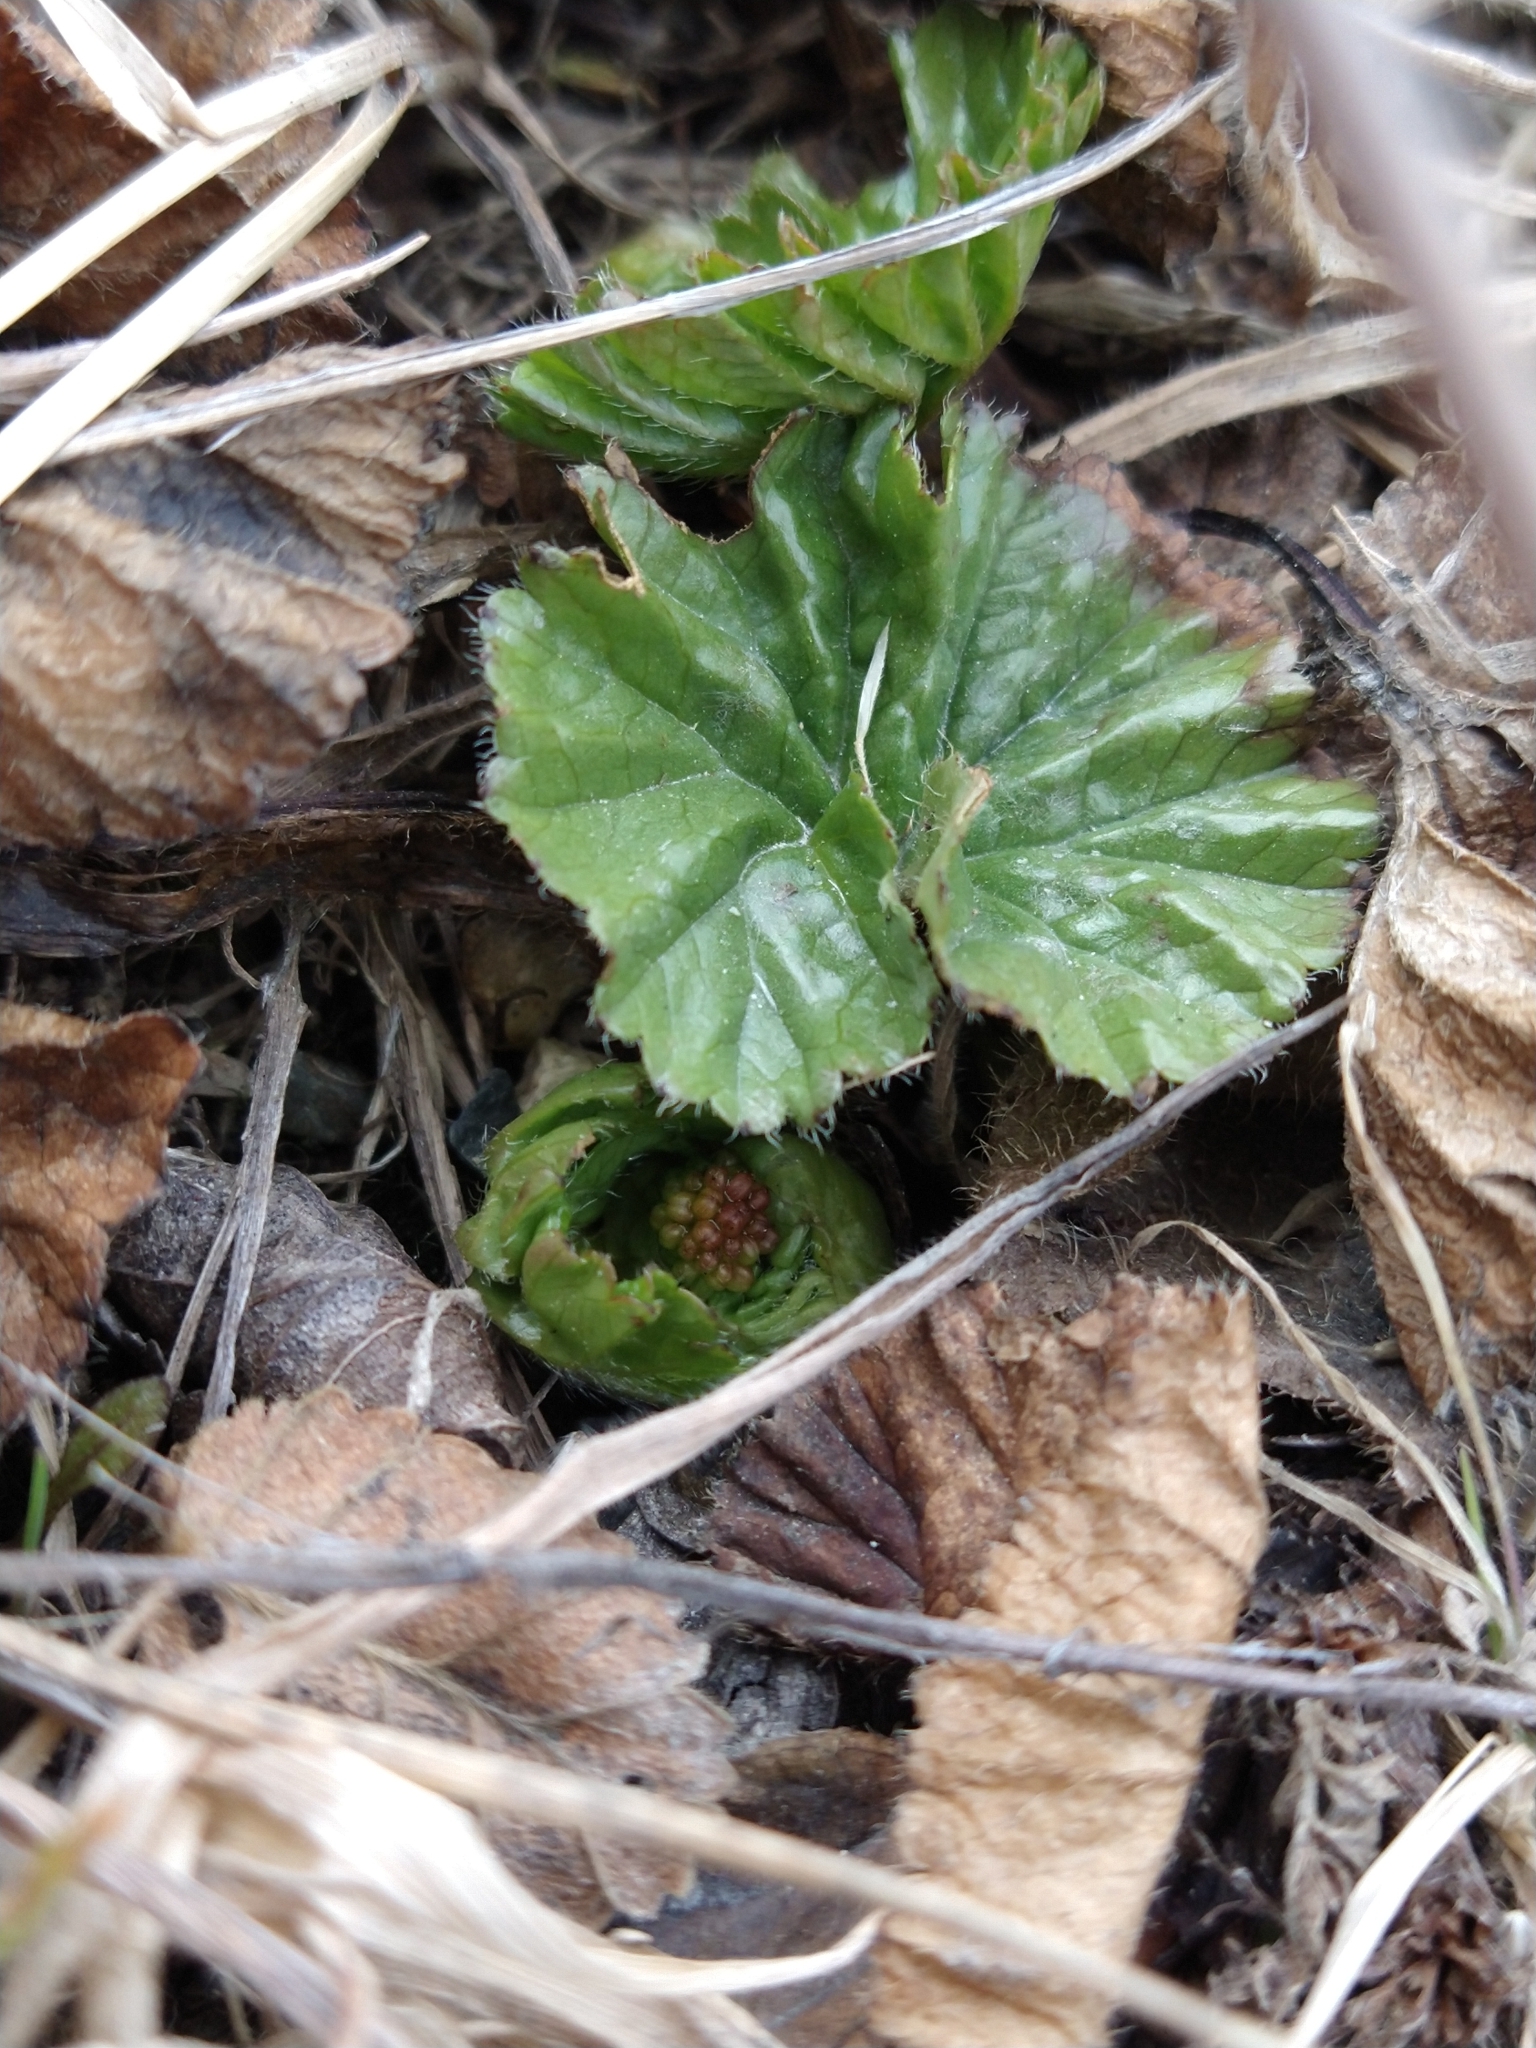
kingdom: Plantae
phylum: Tracheophyta
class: Magnoliopsida
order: Gunnerales
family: Gunneraceae
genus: Gunnera
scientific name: Gunnera magellanica
